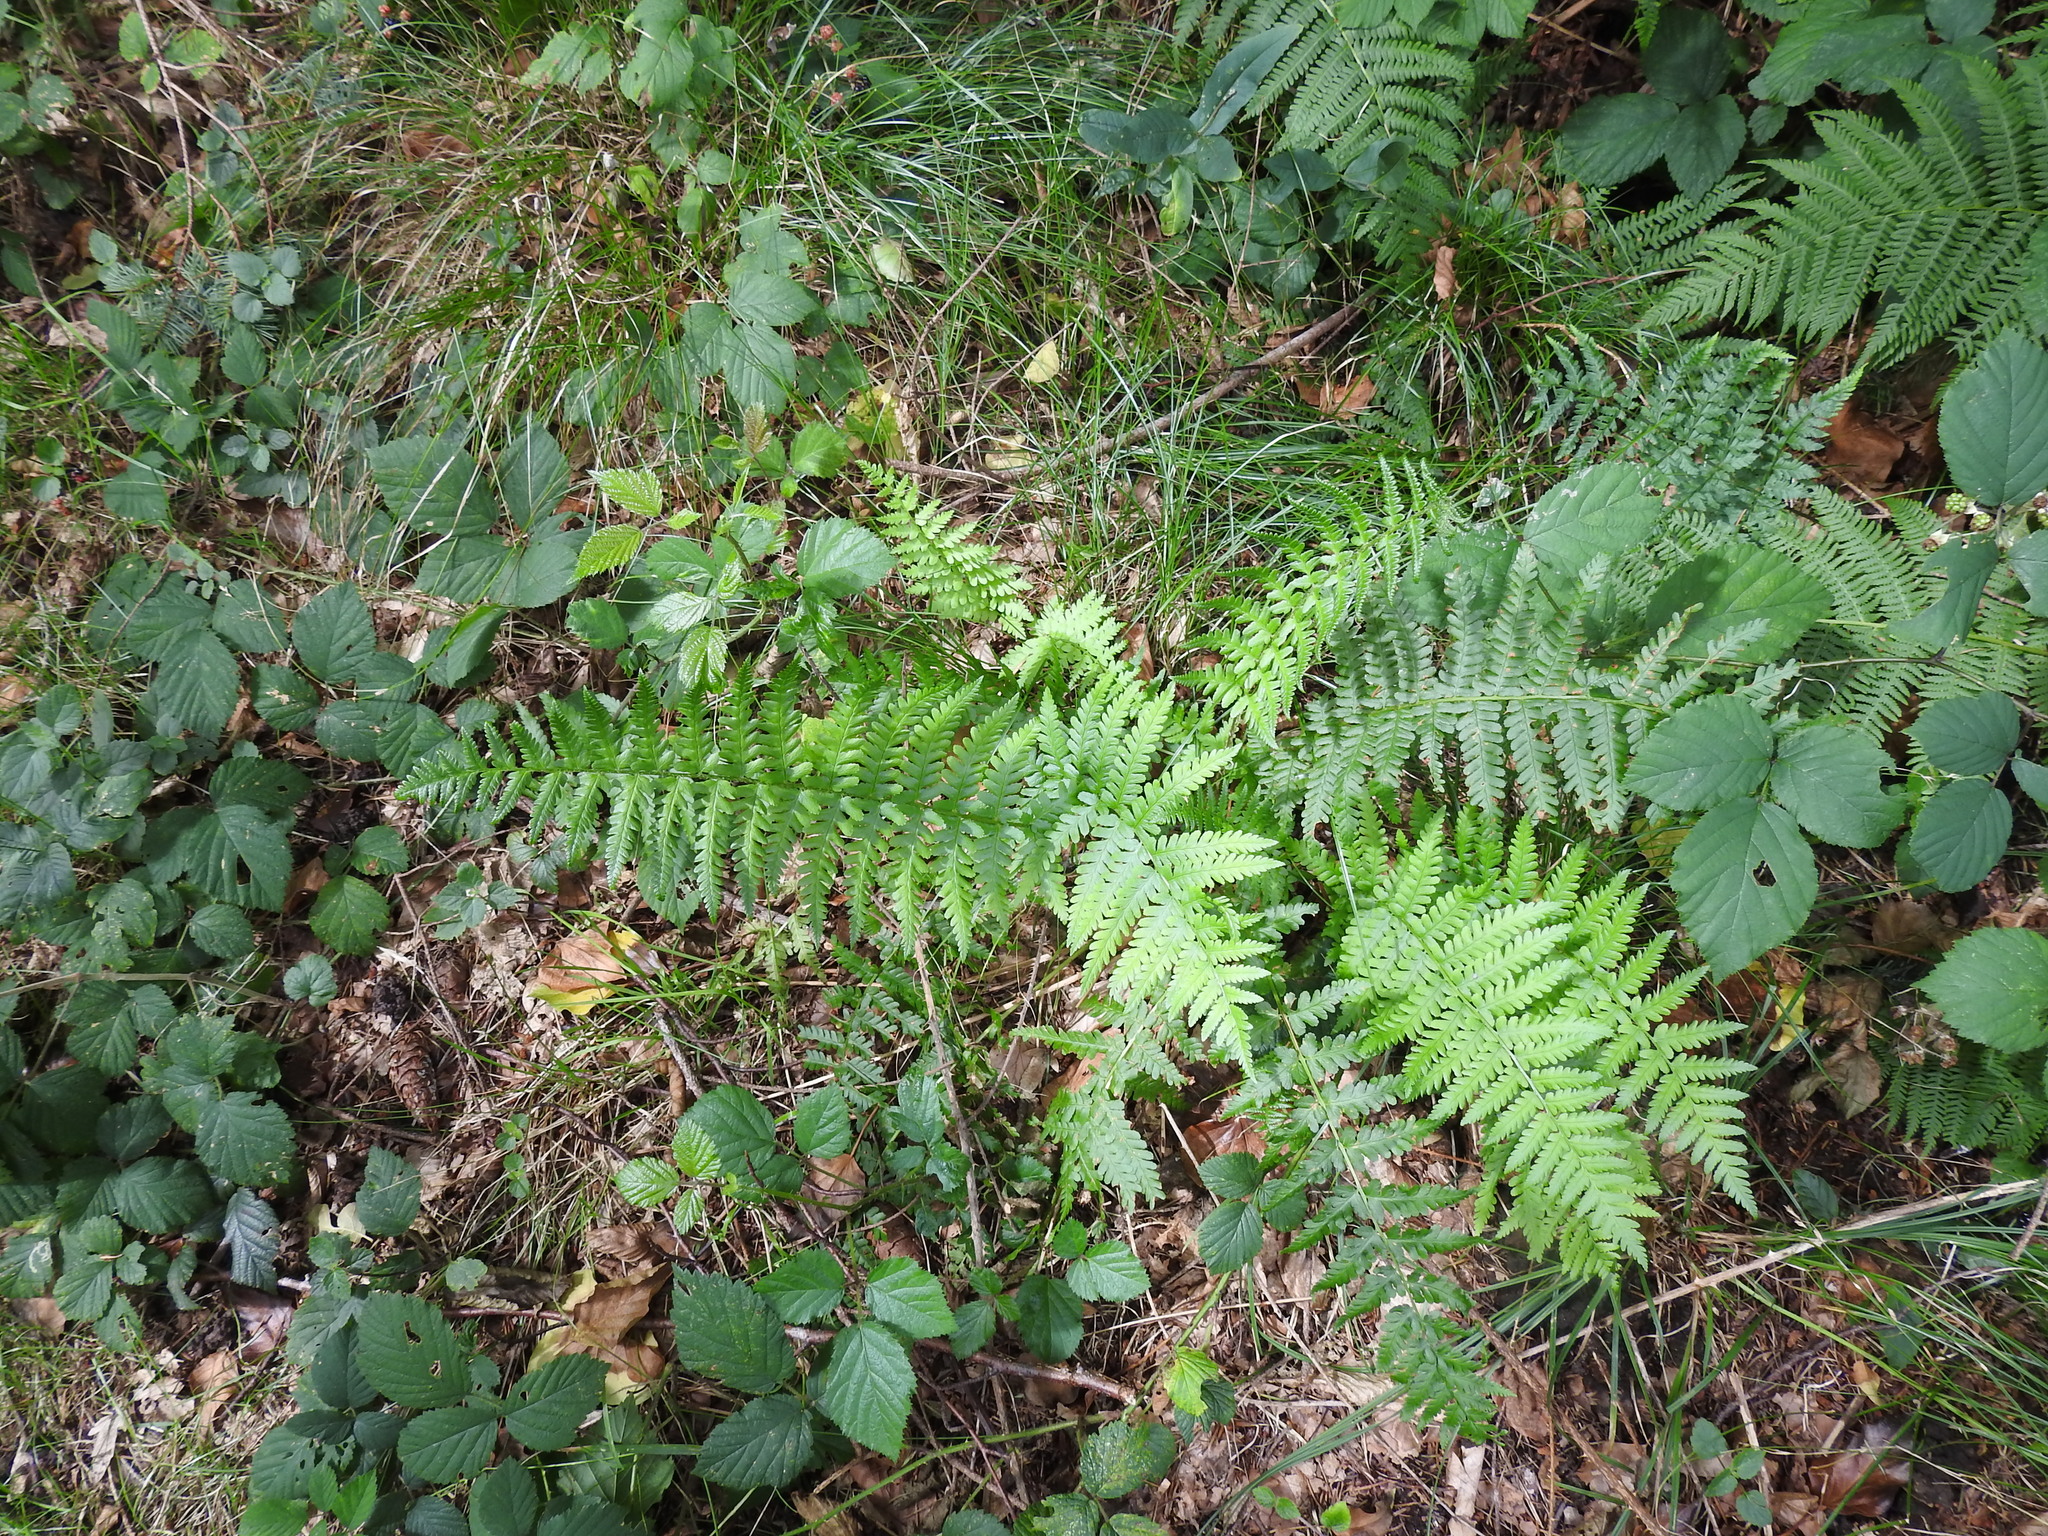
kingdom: Plantae
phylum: Tracheophyta
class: Polypodiopsida
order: Polypodiales
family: Dryopteridaceae
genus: Dryopteris
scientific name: Dryopteris filix-mas
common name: Male fern
